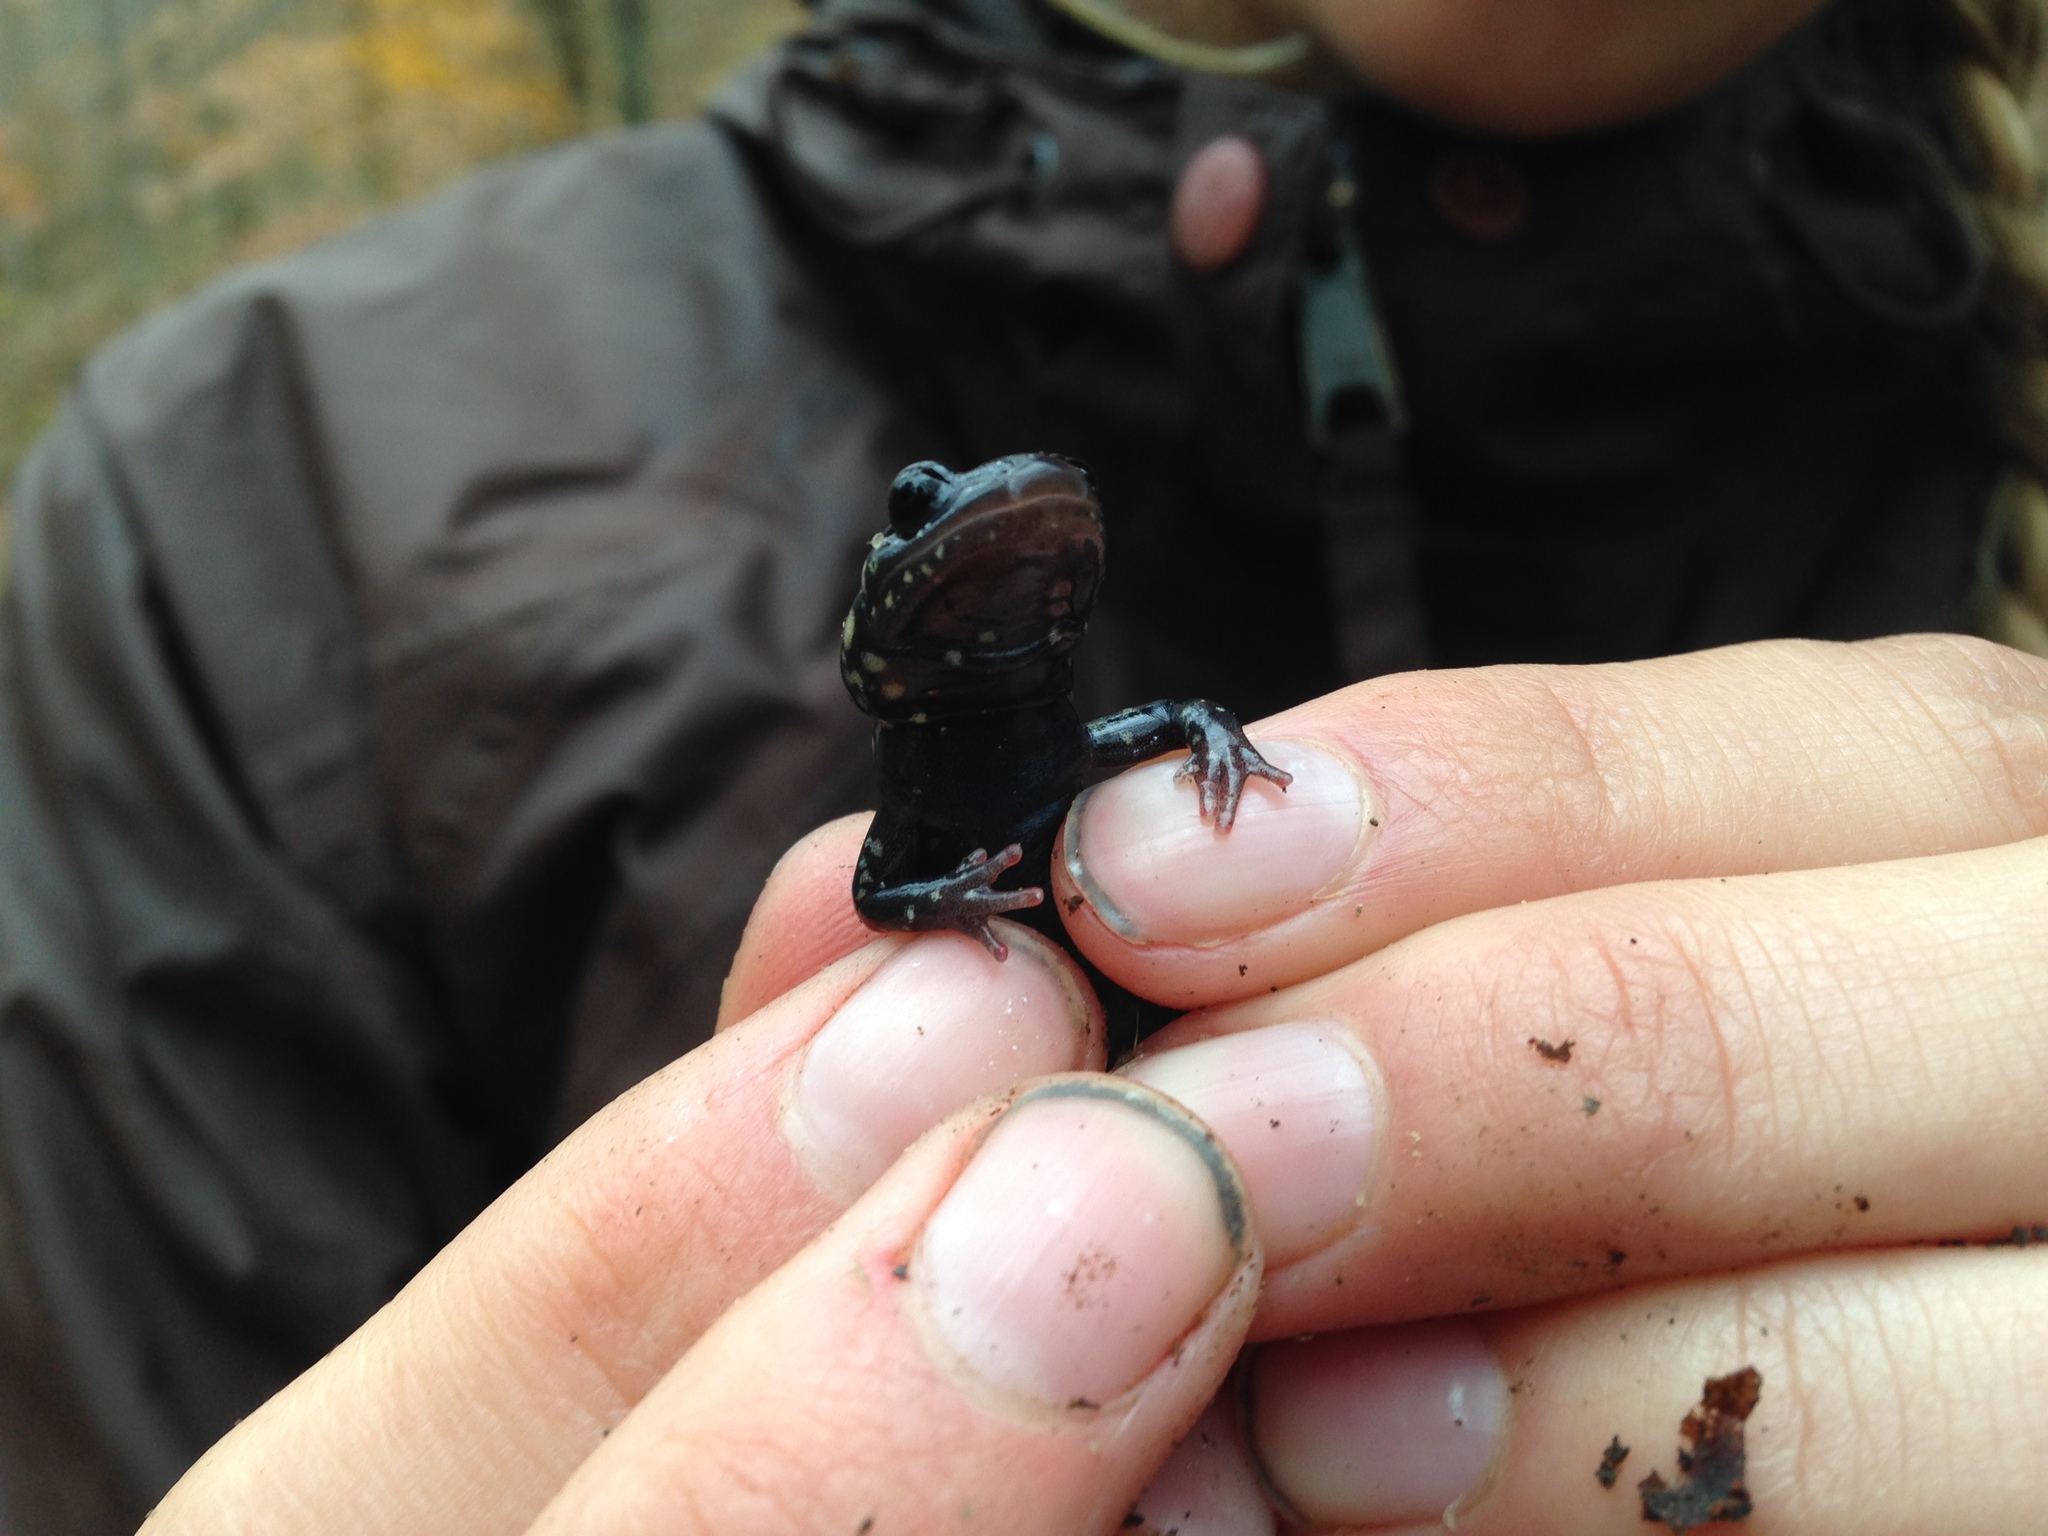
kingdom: Animalia
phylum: Chordata
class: Amphibia
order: Caudata
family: Plethodontidae
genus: Plethodon
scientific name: Plethodon glutinosus
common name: Northern slimy salamander
